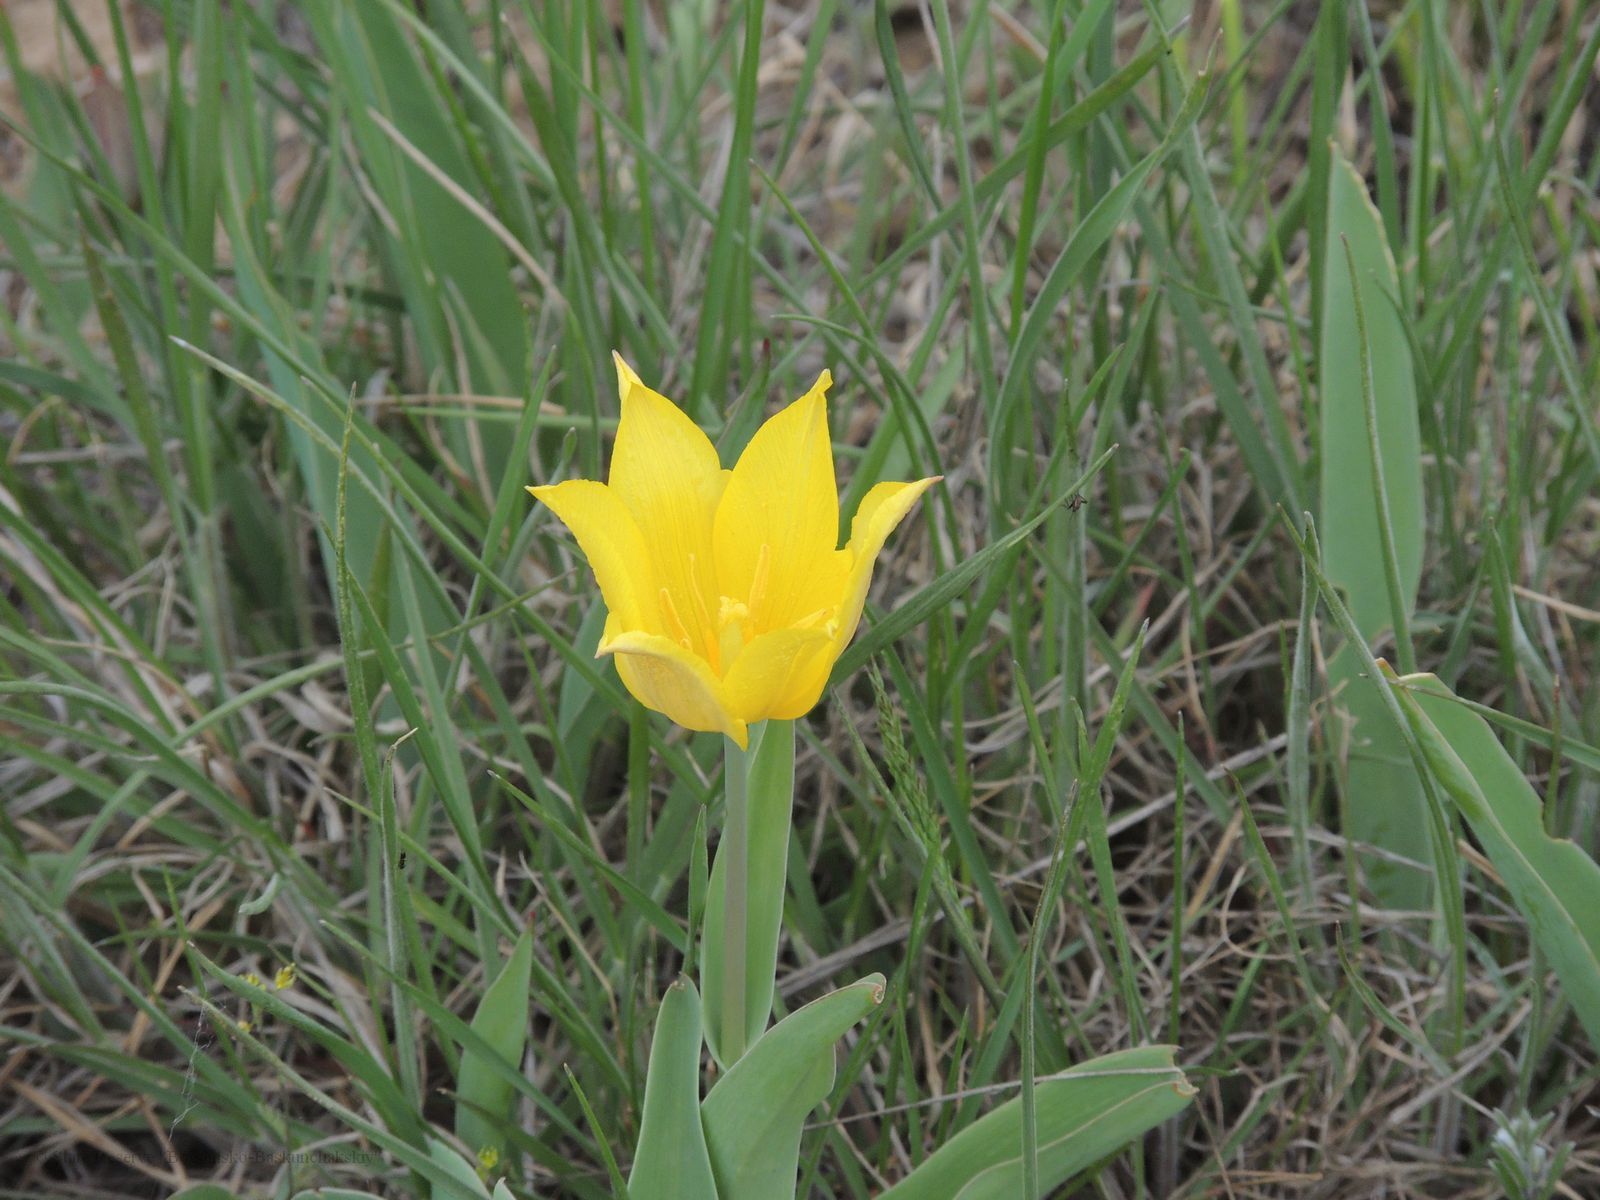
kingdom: Plantae
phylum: Tracheophyta
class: Liliopsida
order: Liliales
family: Liliaceae
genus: Tulipa
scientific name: Tulipa suaveolens
